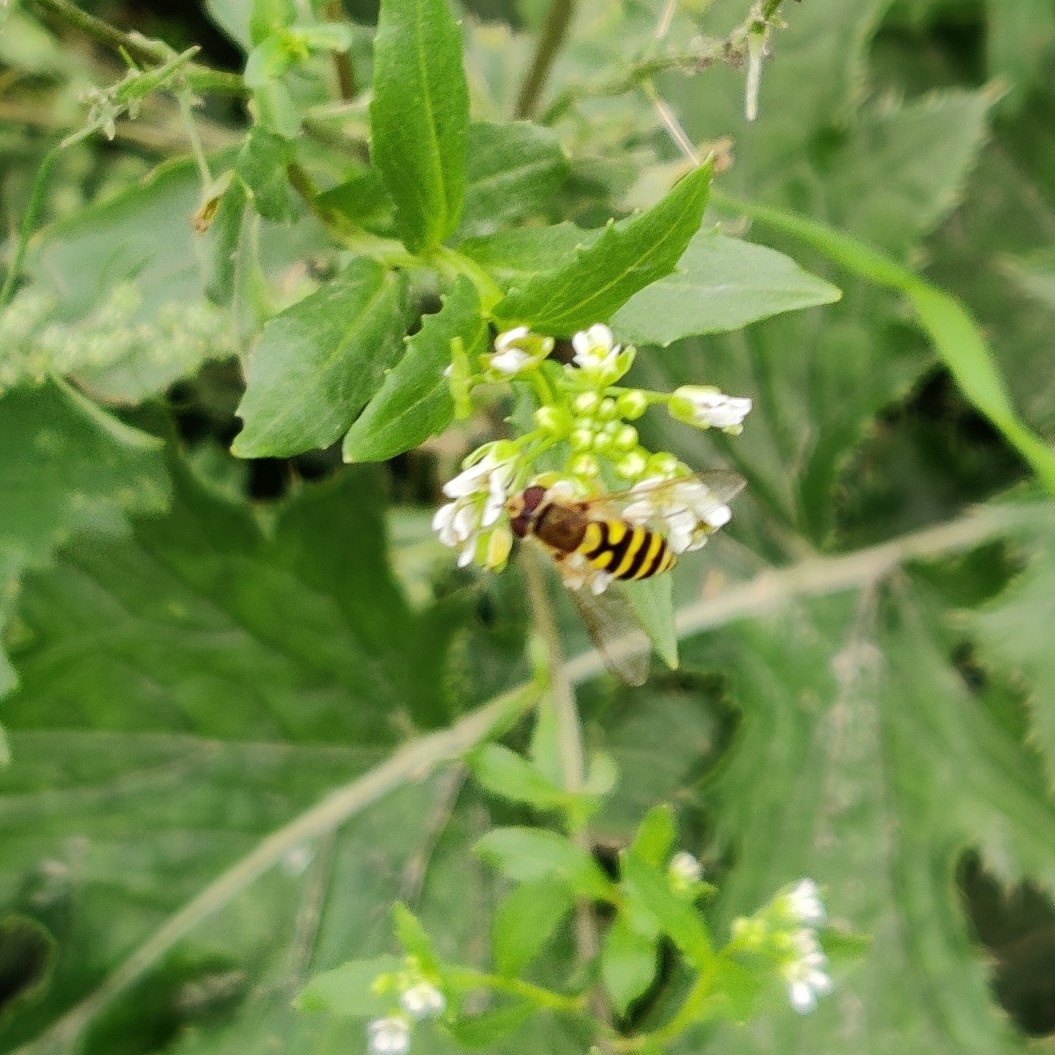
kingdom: Animalia
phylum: Arthropoda
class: Insecta
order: Diptera
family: Syrphidae
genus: Syrphus
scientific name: Syrphus
